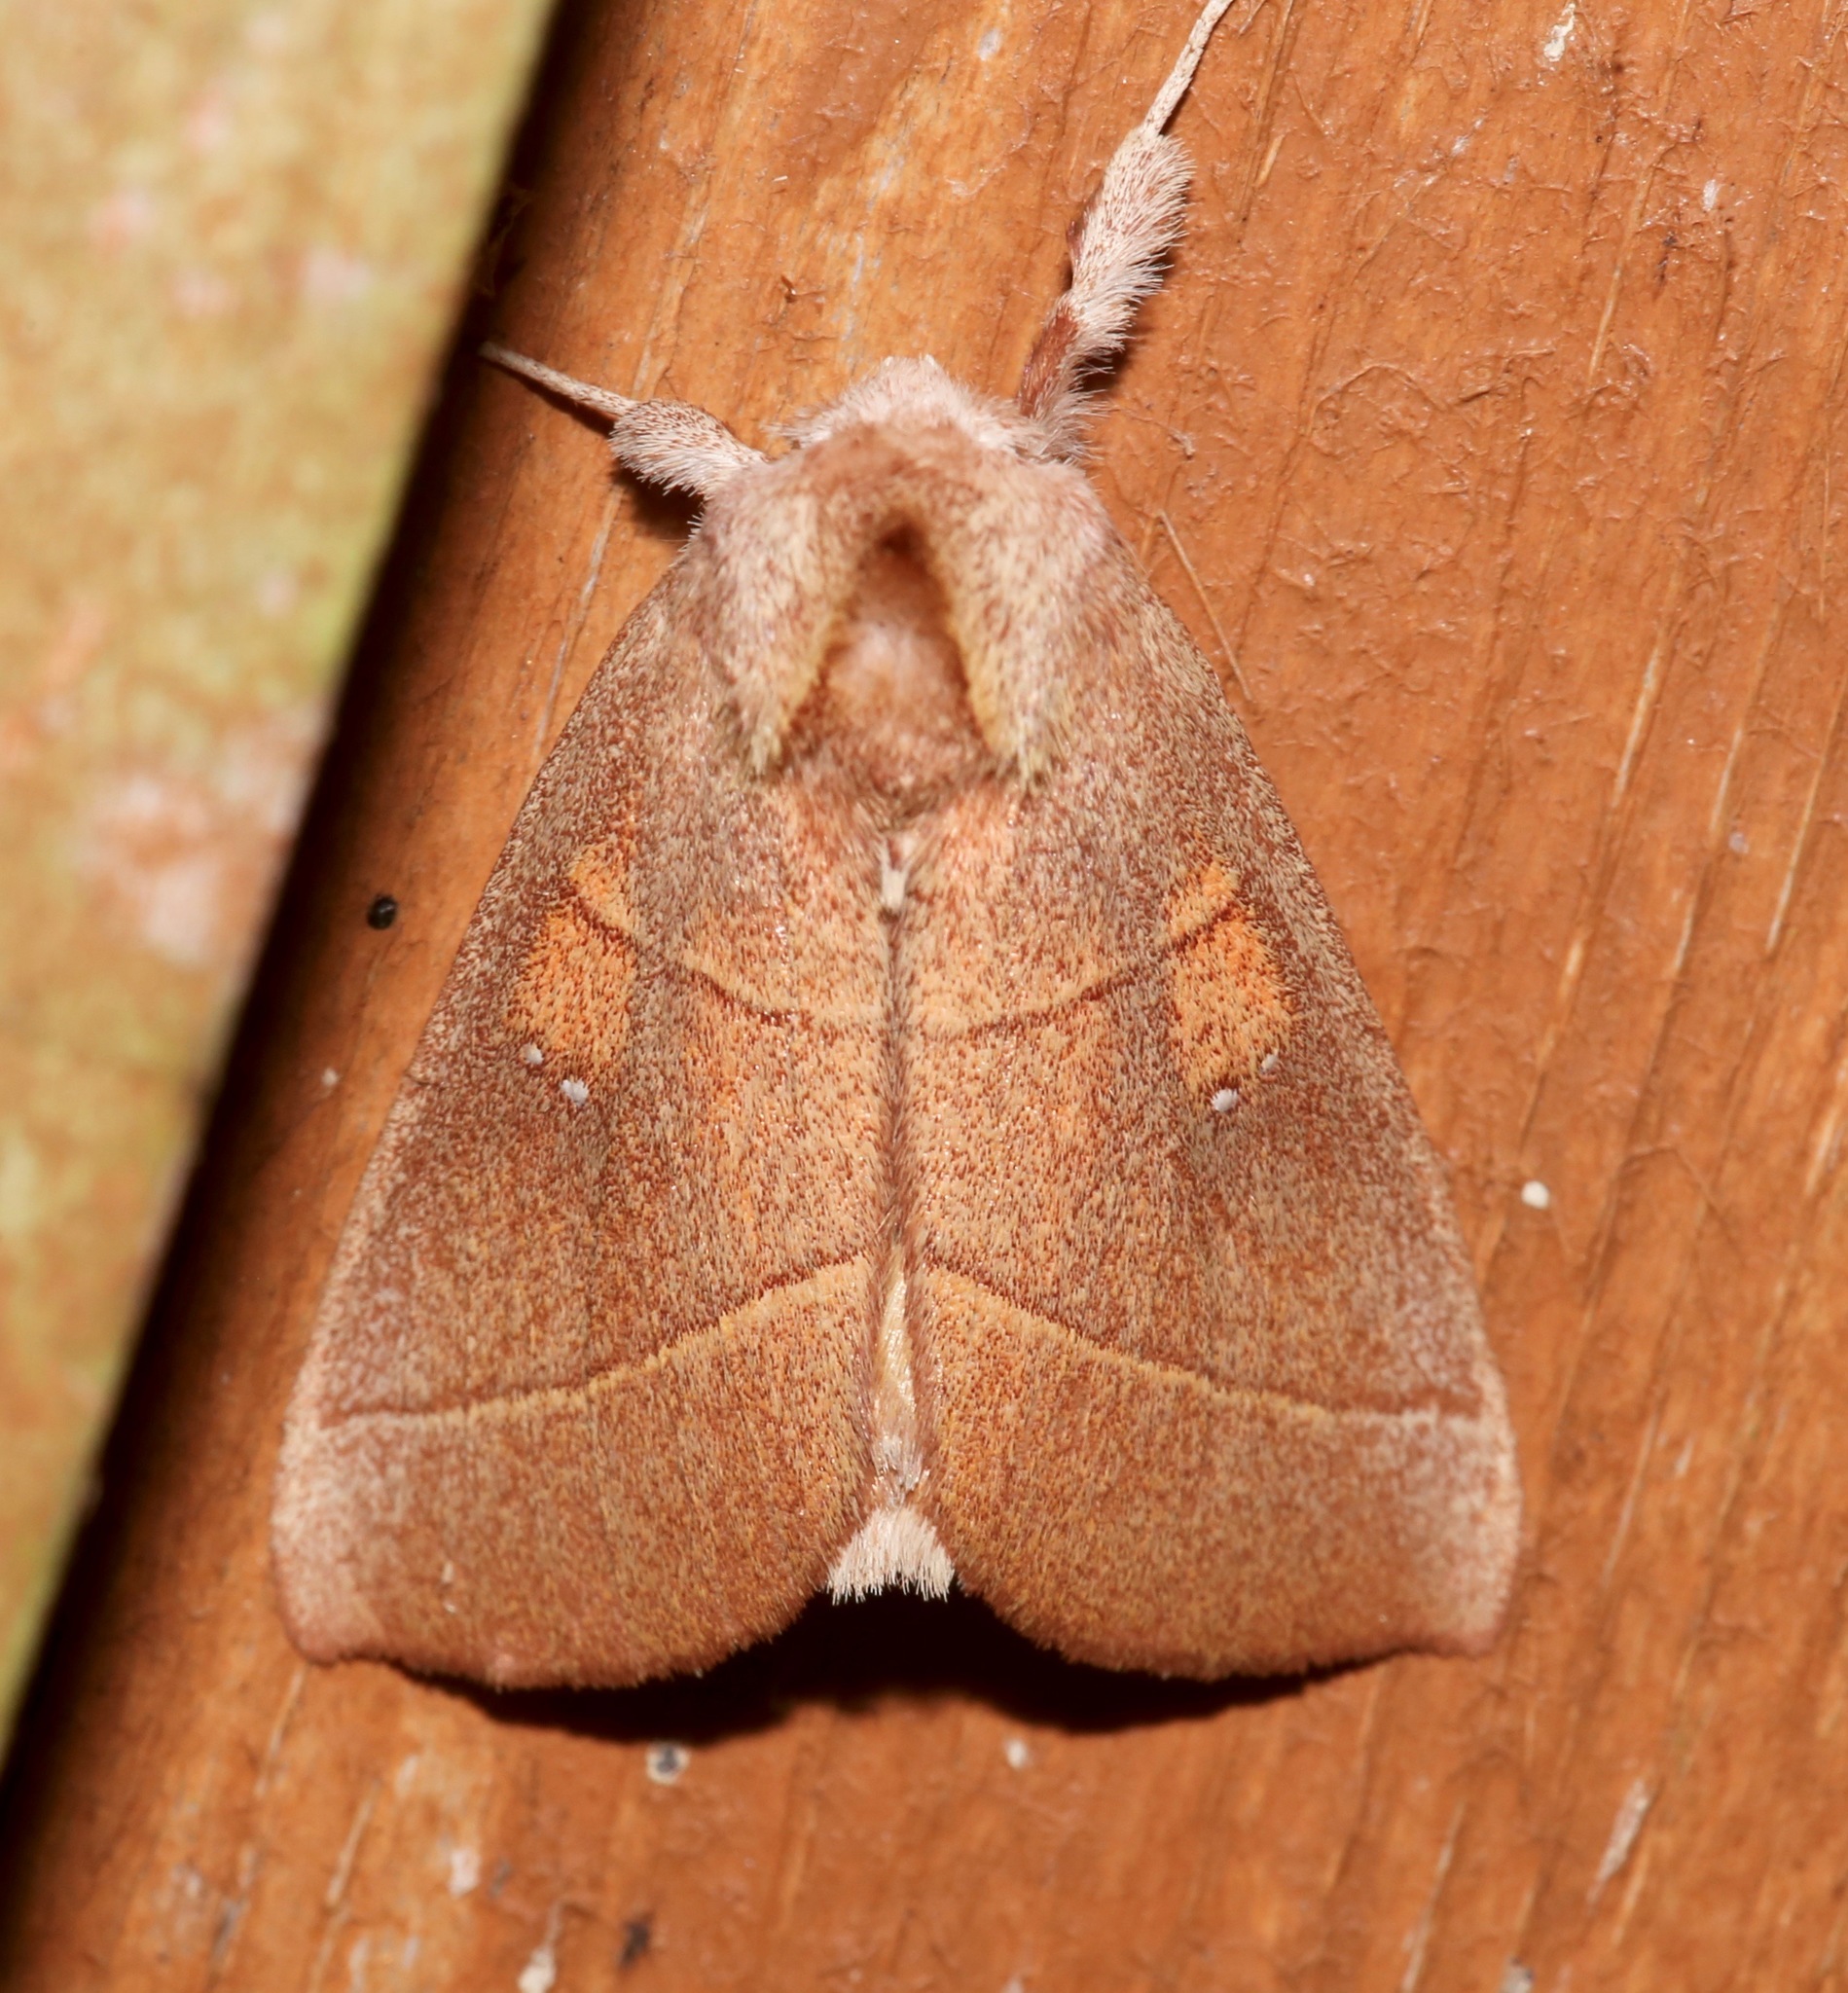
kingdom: Animalia
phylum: Arthropoda
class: Insecta
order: Lepidoptera
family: Notodontidae
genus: Nadata
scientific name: Nadata gibbosa
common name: White-dotted prominent
